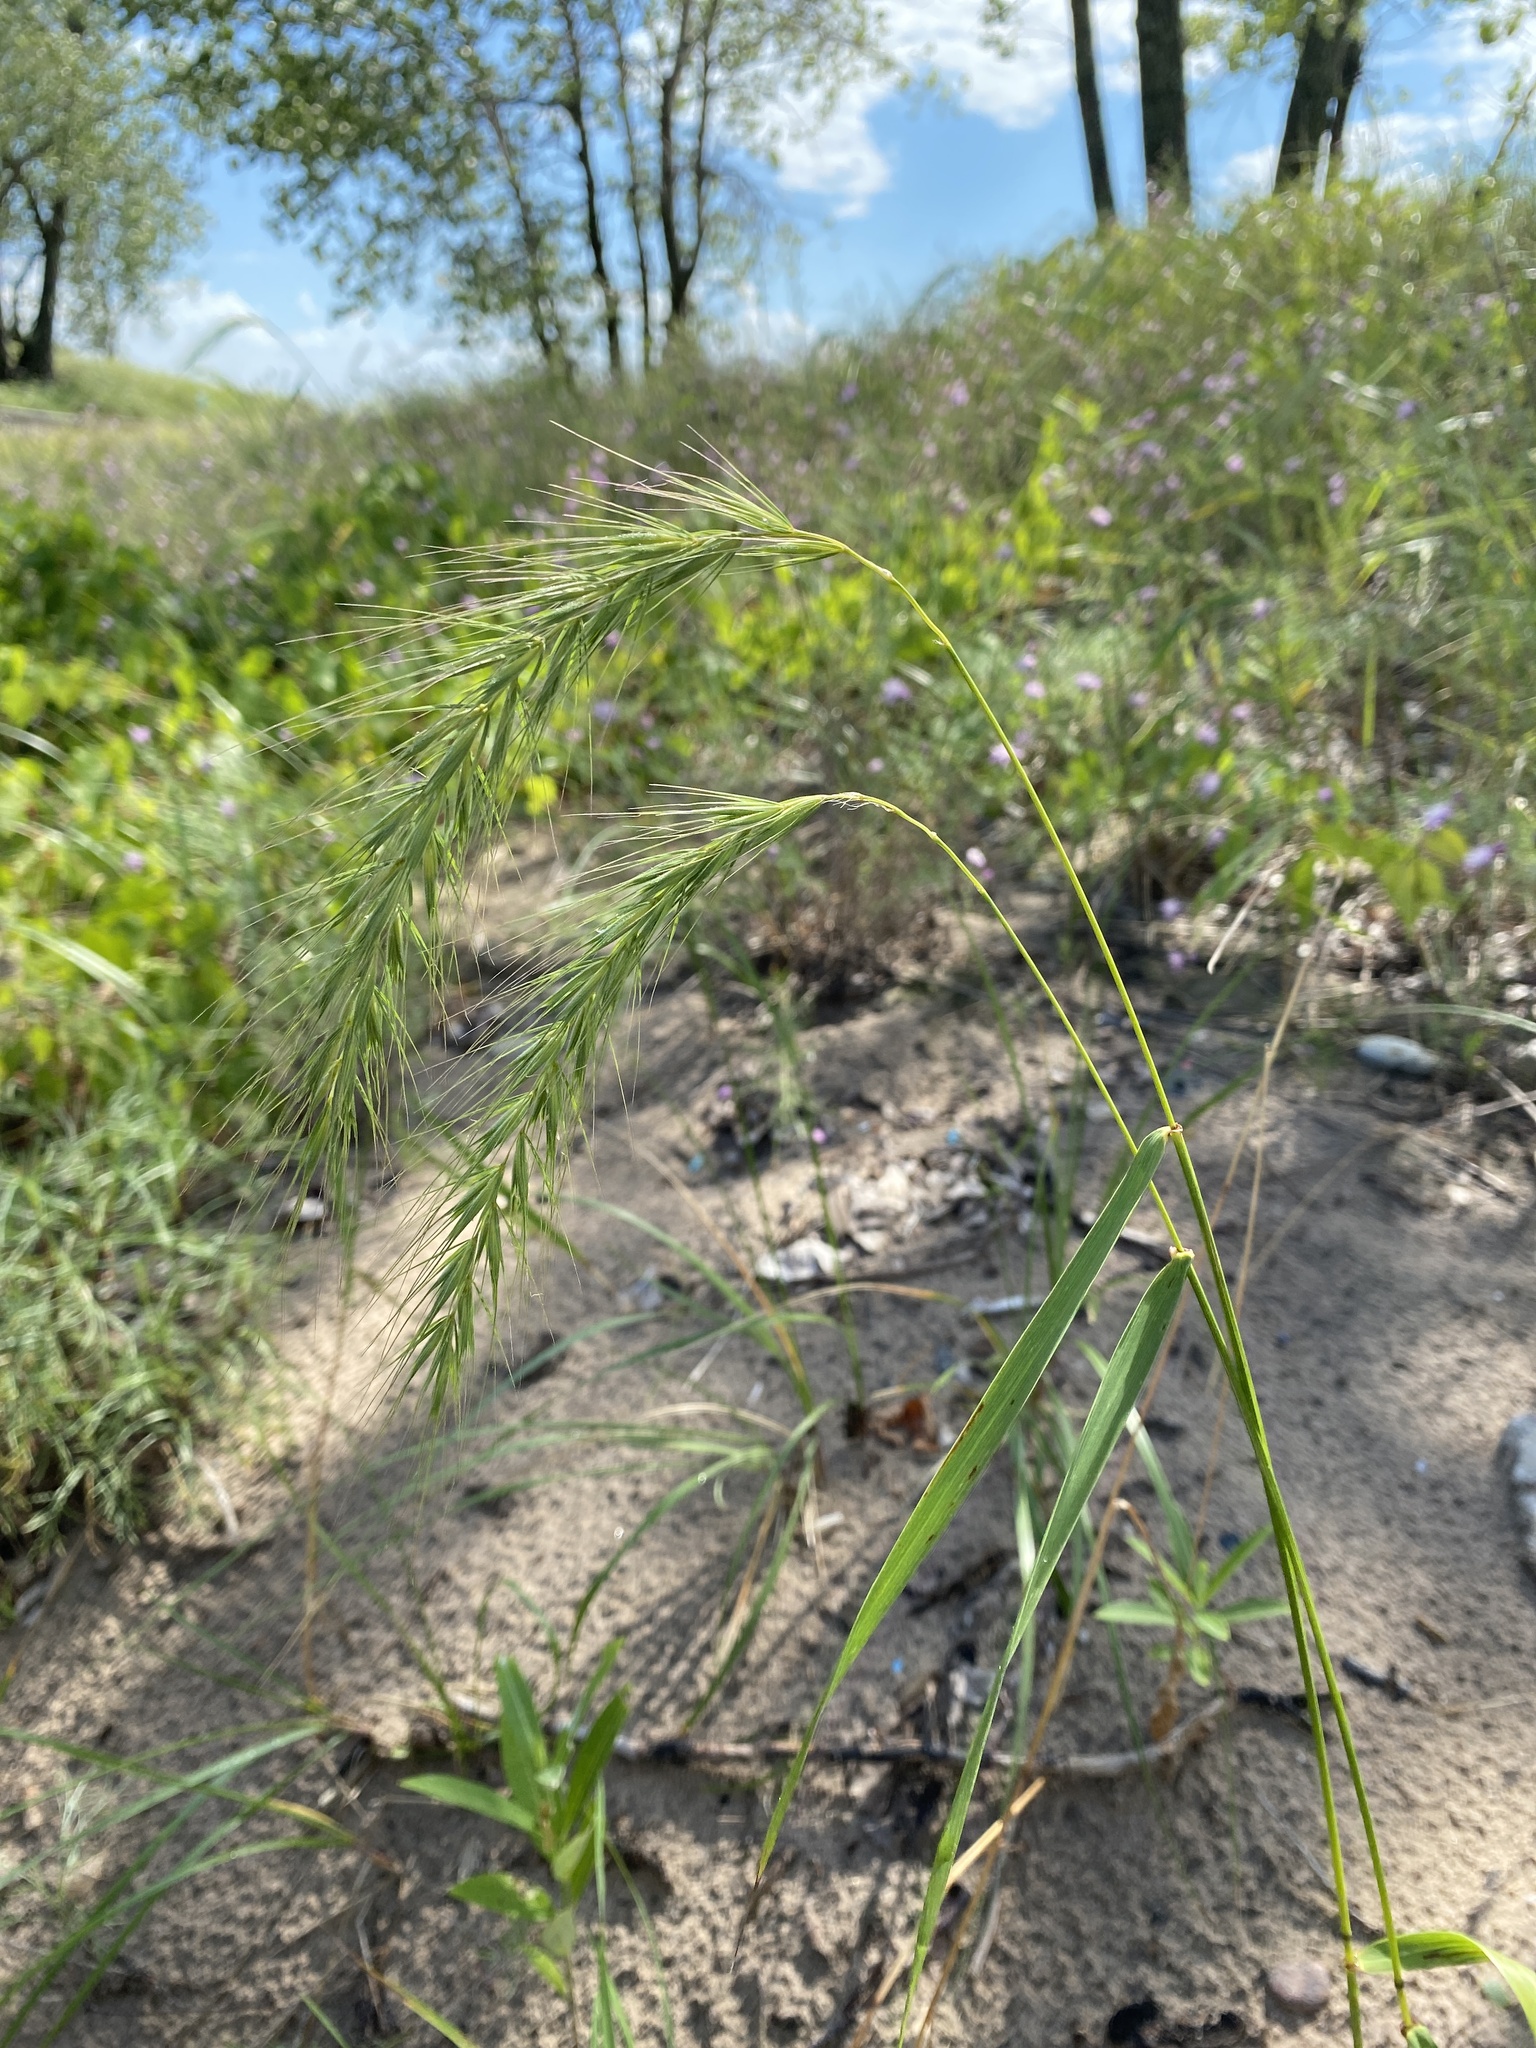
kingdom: Plantae
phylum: Tracheophyta
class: Liliopsida
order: Poales
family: Poaceae
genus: Elymus
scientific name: Elymus canadensis
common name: Canada wild rye
